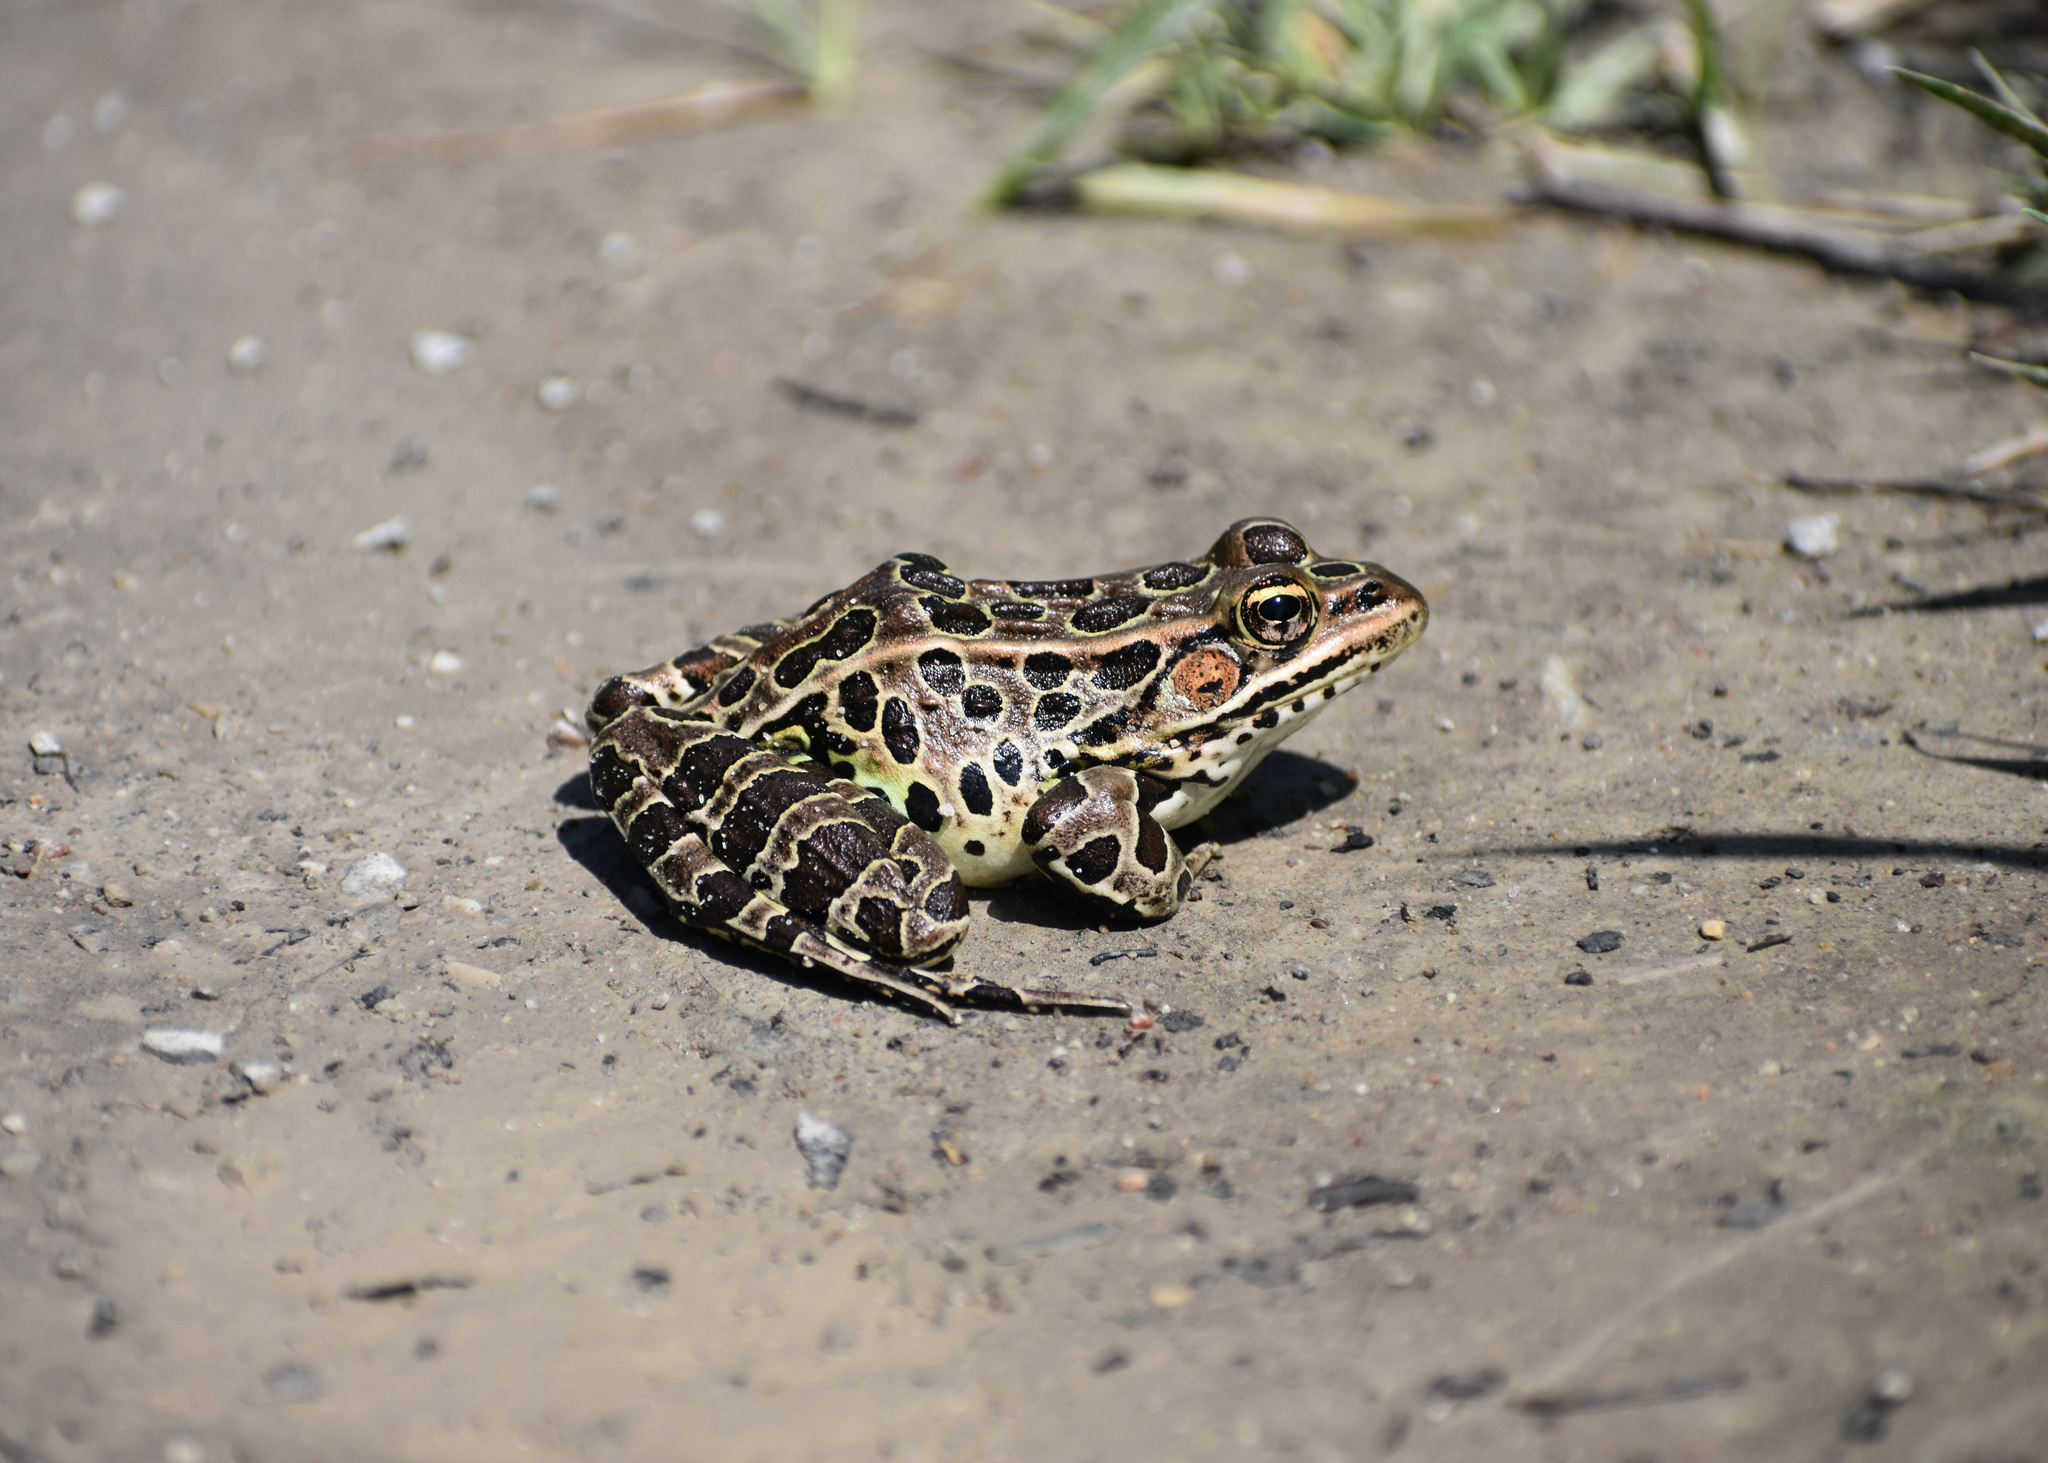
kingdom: Animalia
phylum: Chordata
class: Amphibia
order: Anura
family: Ranidae
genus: Lithobates
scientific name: Lithobates pipiens
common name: Northern leopard frog
